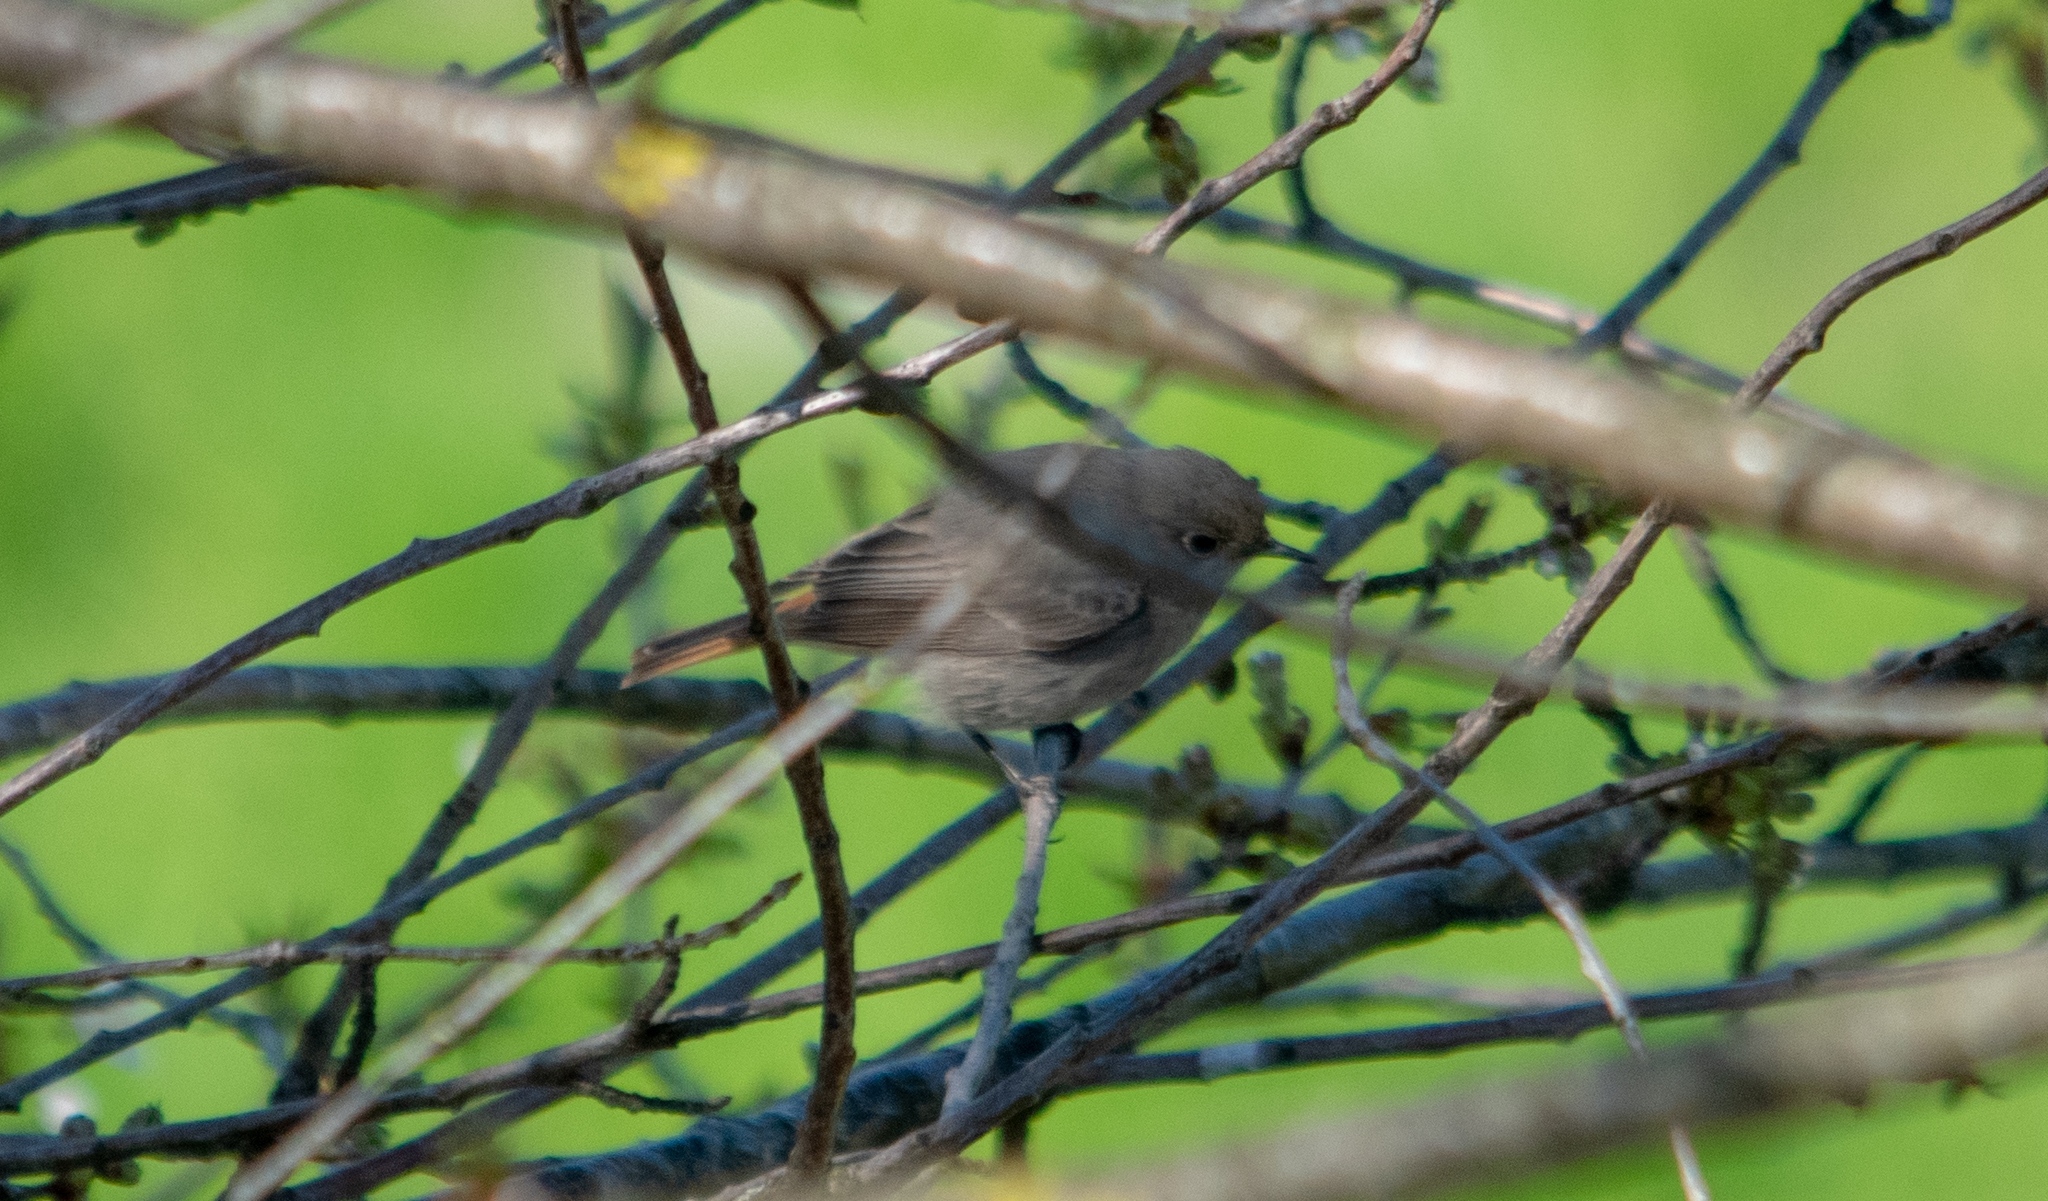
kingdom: Animalia
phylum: Chordata
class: Aves
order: Passeriformes
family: Muscicapidae
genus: Phoenicurus
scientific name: Phoenicurus phoenicurus
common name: Common redstart
